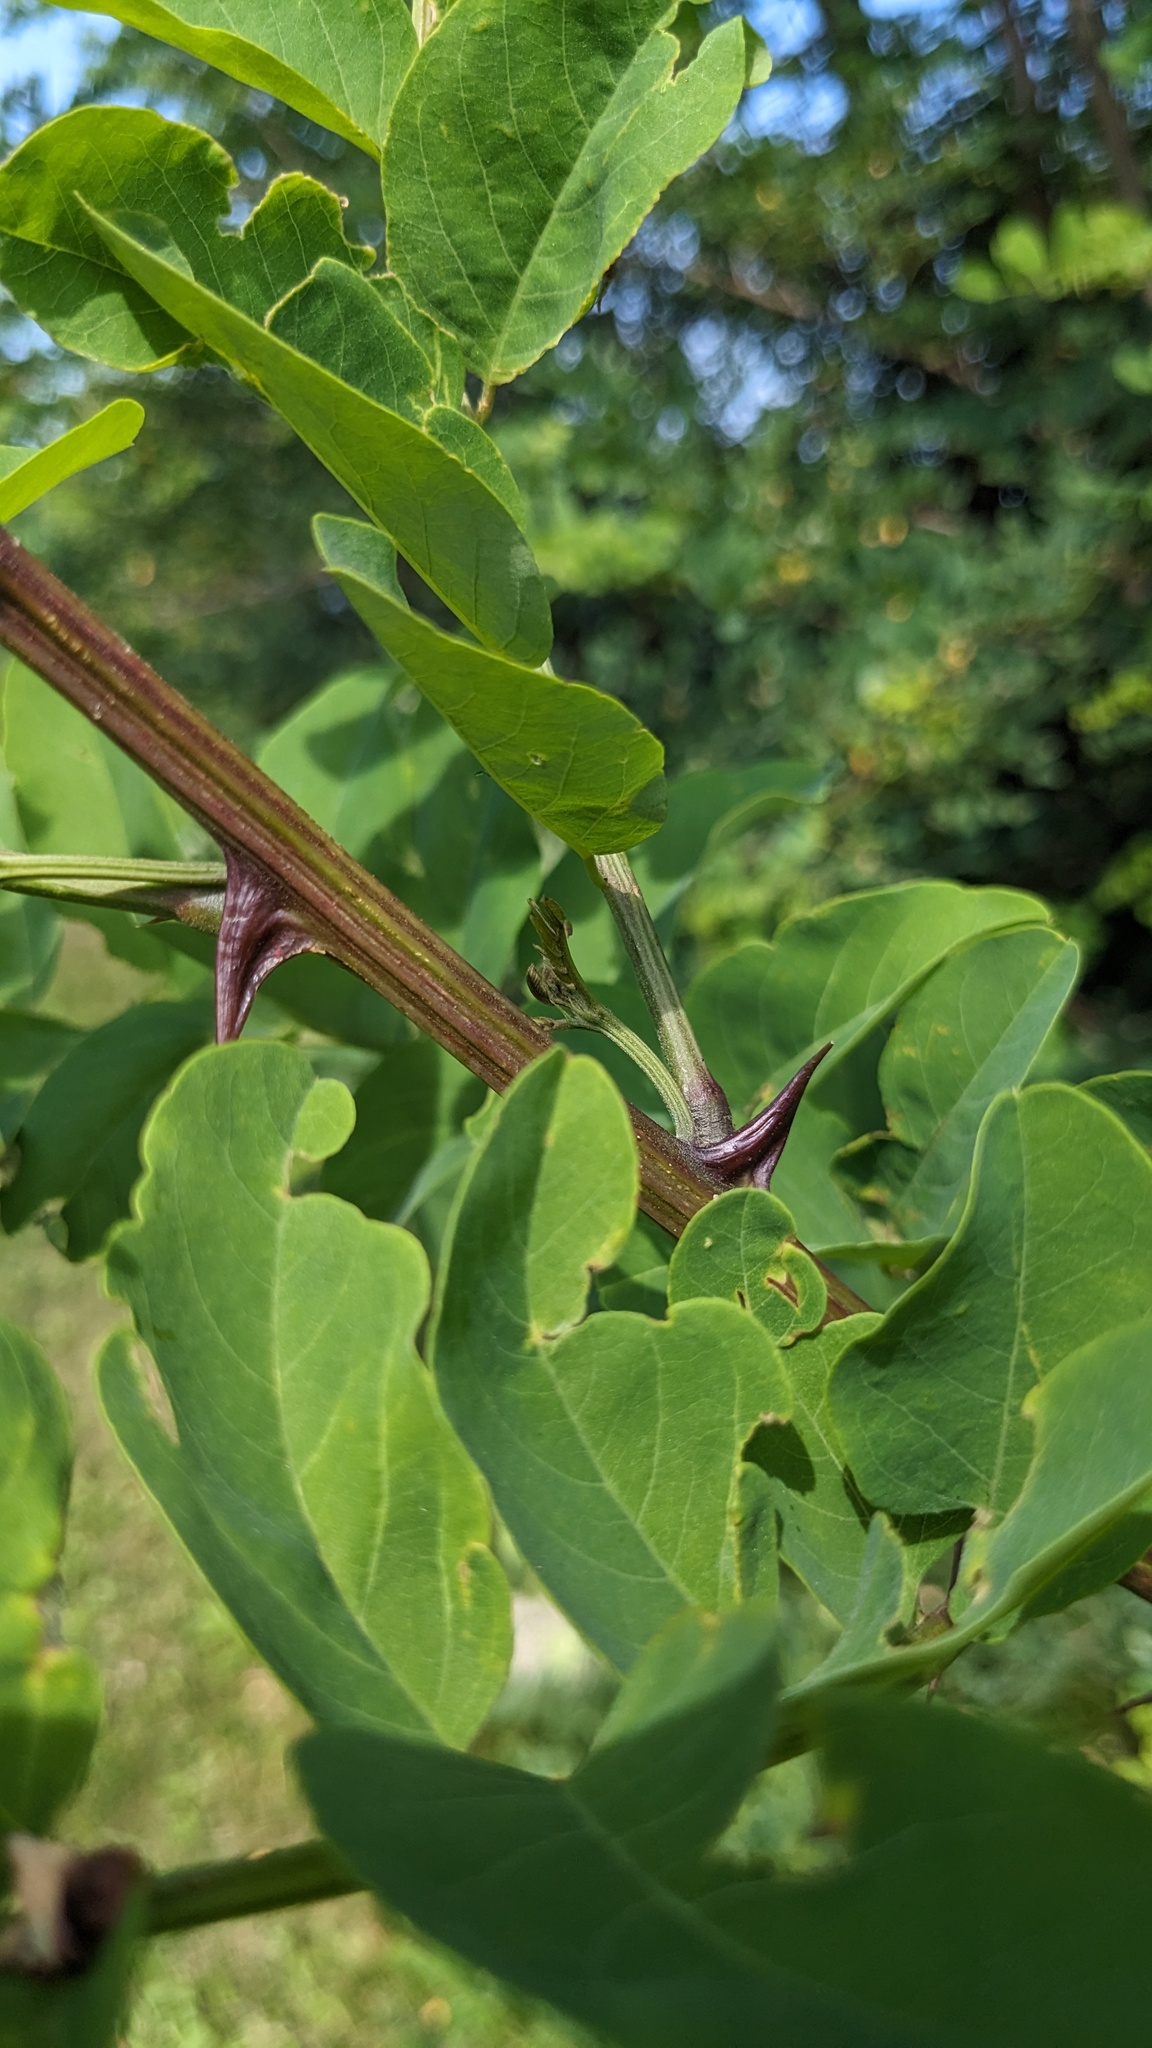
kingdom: Plantae
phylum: Tracheophyta
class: Magnoliopsida
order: Fabales
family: Fabaceae
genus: Robinia
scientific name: Robinia pseudoacacia
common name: Black locust
